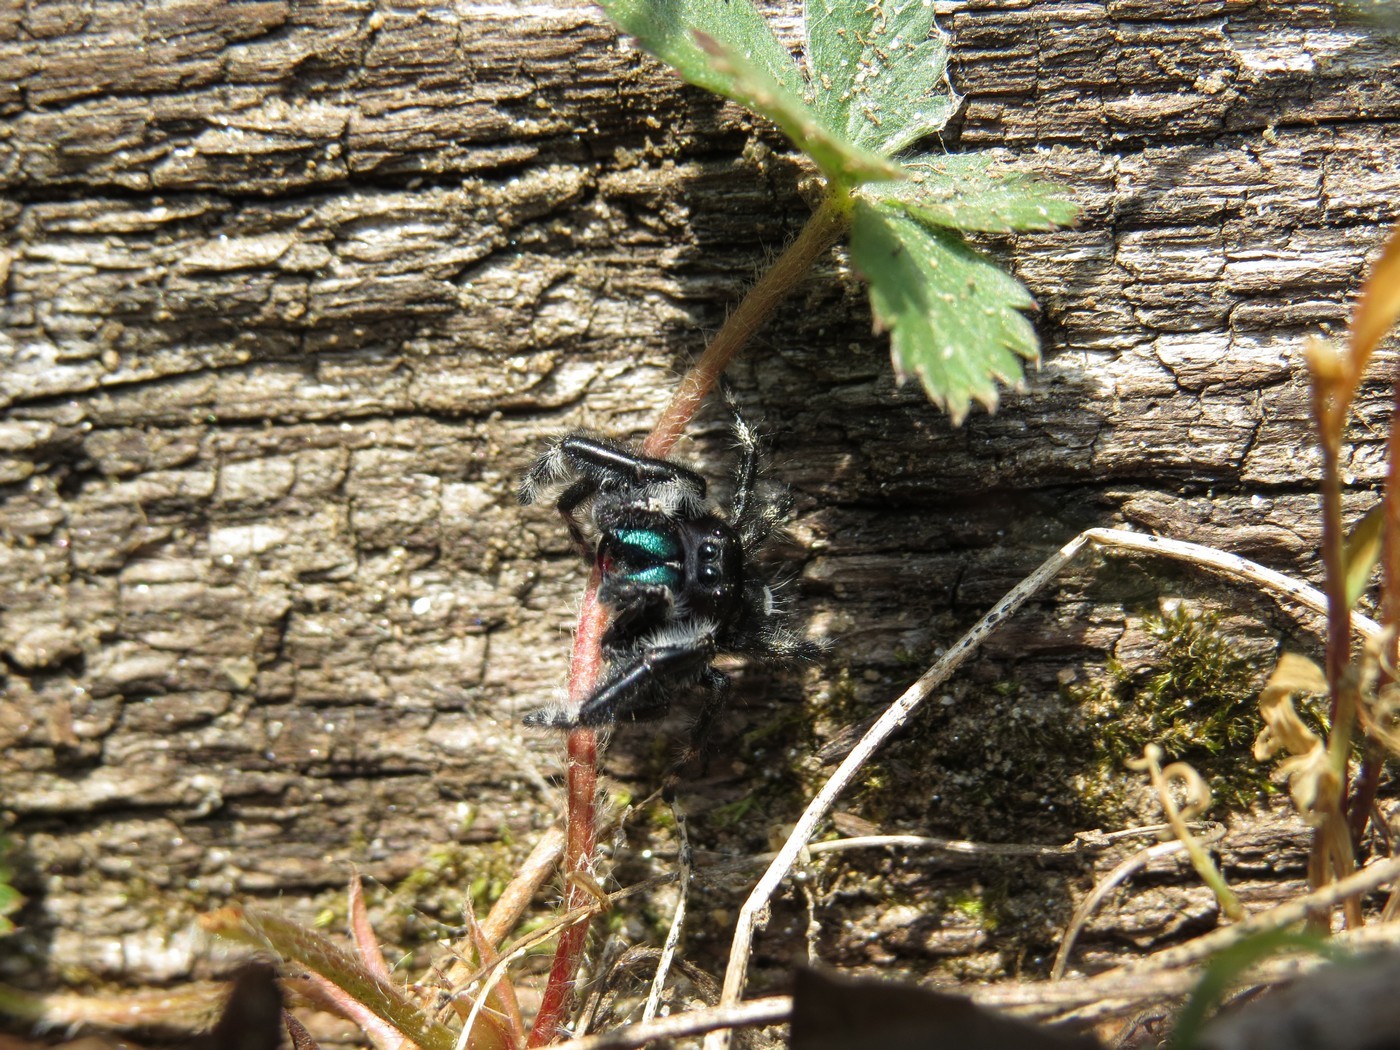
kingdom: Animalia
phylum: Arthropoda
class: Arachnida
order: Araneae
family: Salticidae
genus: Phidippus
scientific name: Phidippus audax
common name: Bold jumper
